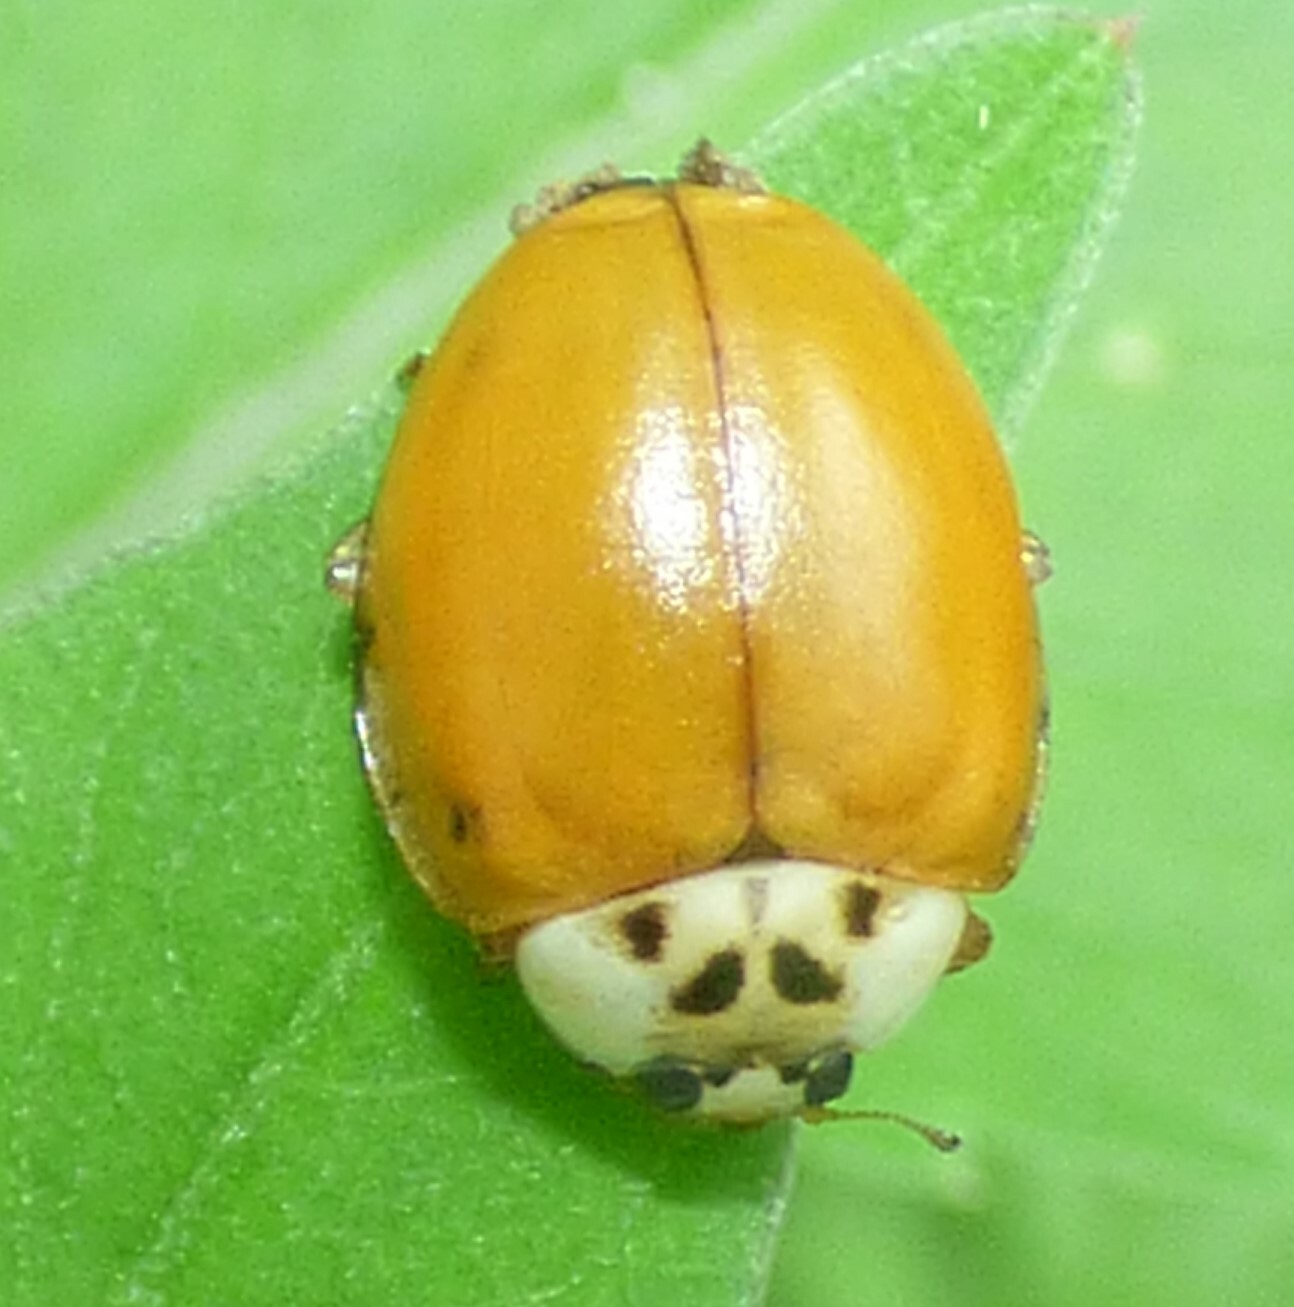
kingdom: Animalia
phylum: Arthropoda
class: Insecta
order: Coleoptera
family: Coccinellidae
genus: Harmonia
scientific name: Harmonia axyridis
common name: Harlequin ladybird
